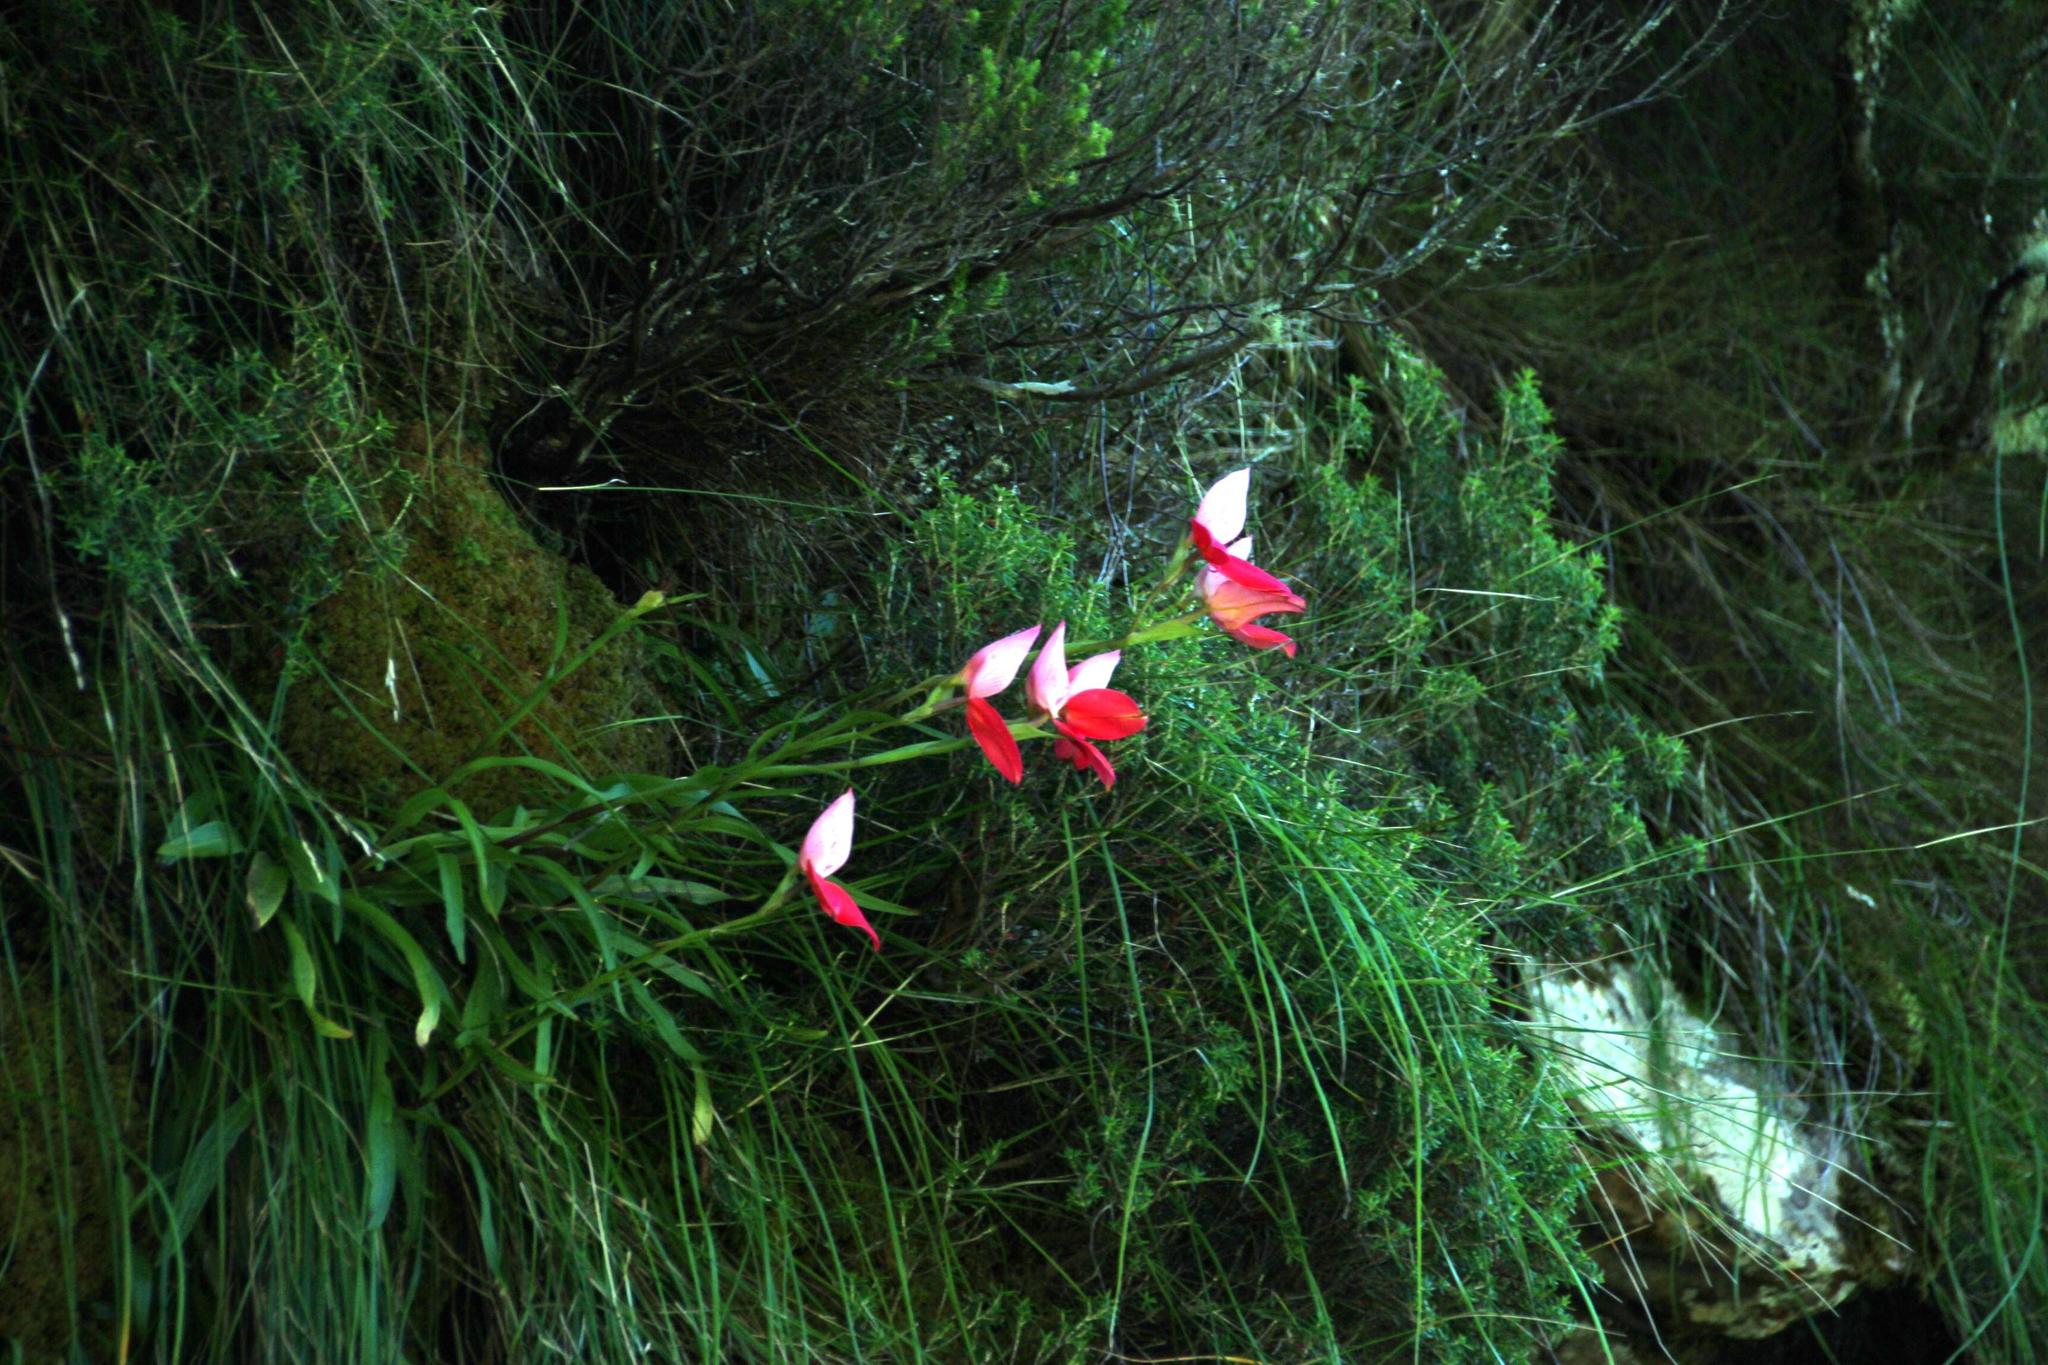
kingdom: Plantae
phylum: Tracheophyta
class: Liliopsida
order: Asparagales
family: Orchidaceae
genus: Disa
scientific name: Disa uniflora
